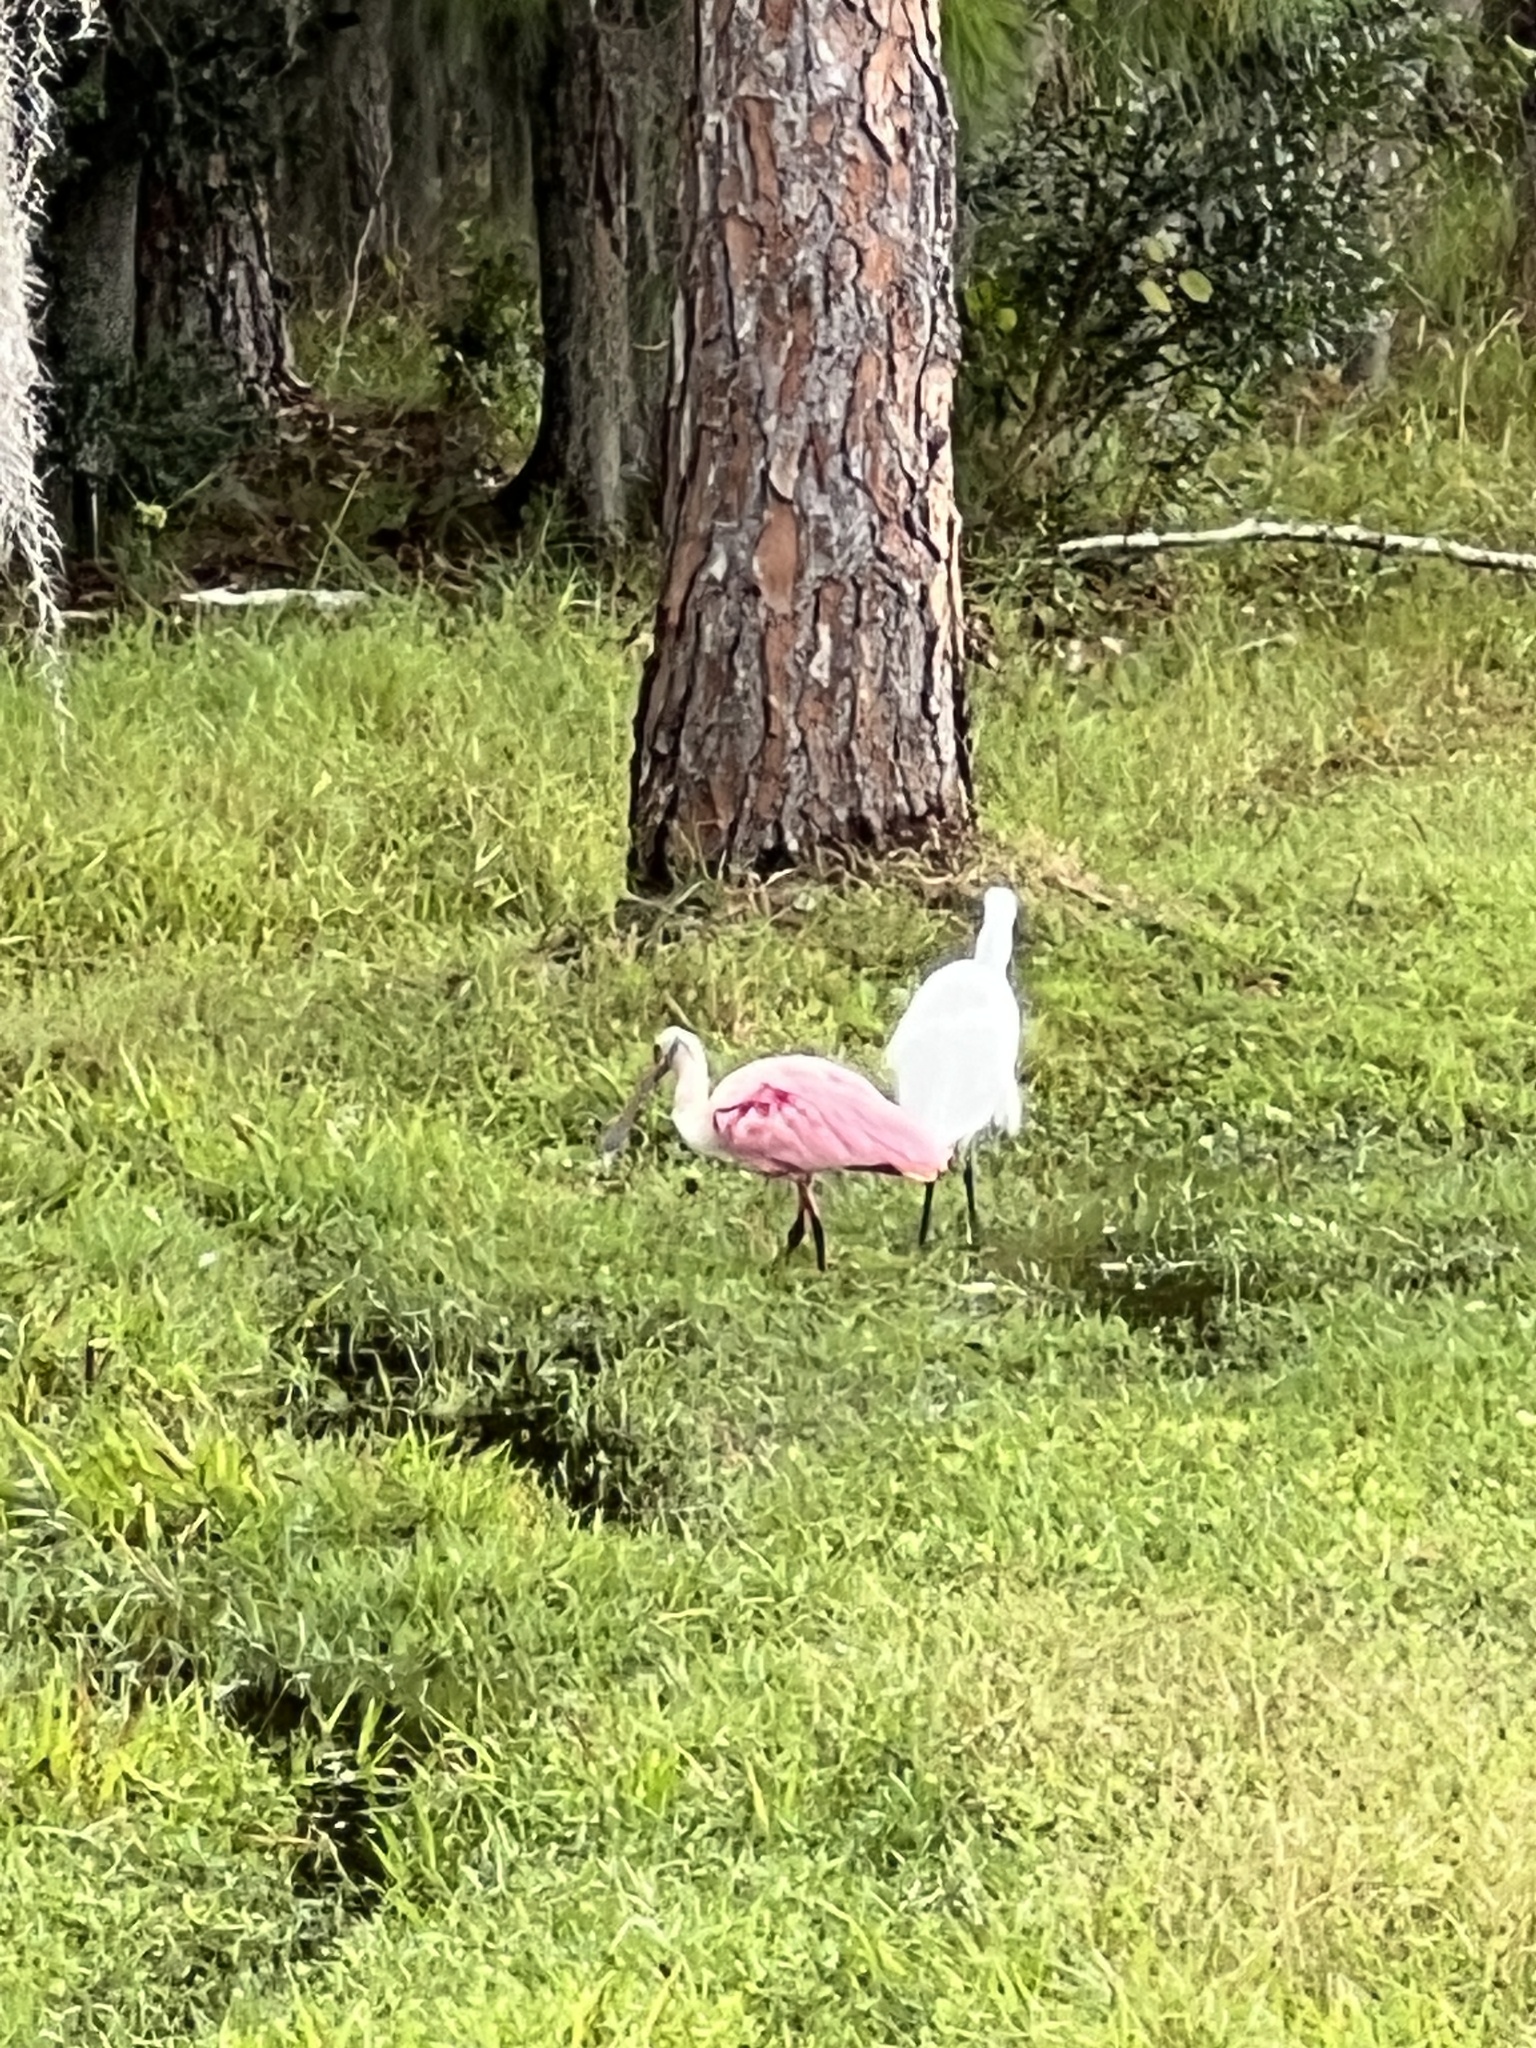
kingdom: Animalia
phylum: Chordata
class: Aves
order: Pelecaniformes
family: Threskiornithidae
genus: Platalea
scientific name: Platalea ajaja
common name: Roseate spoonbill
